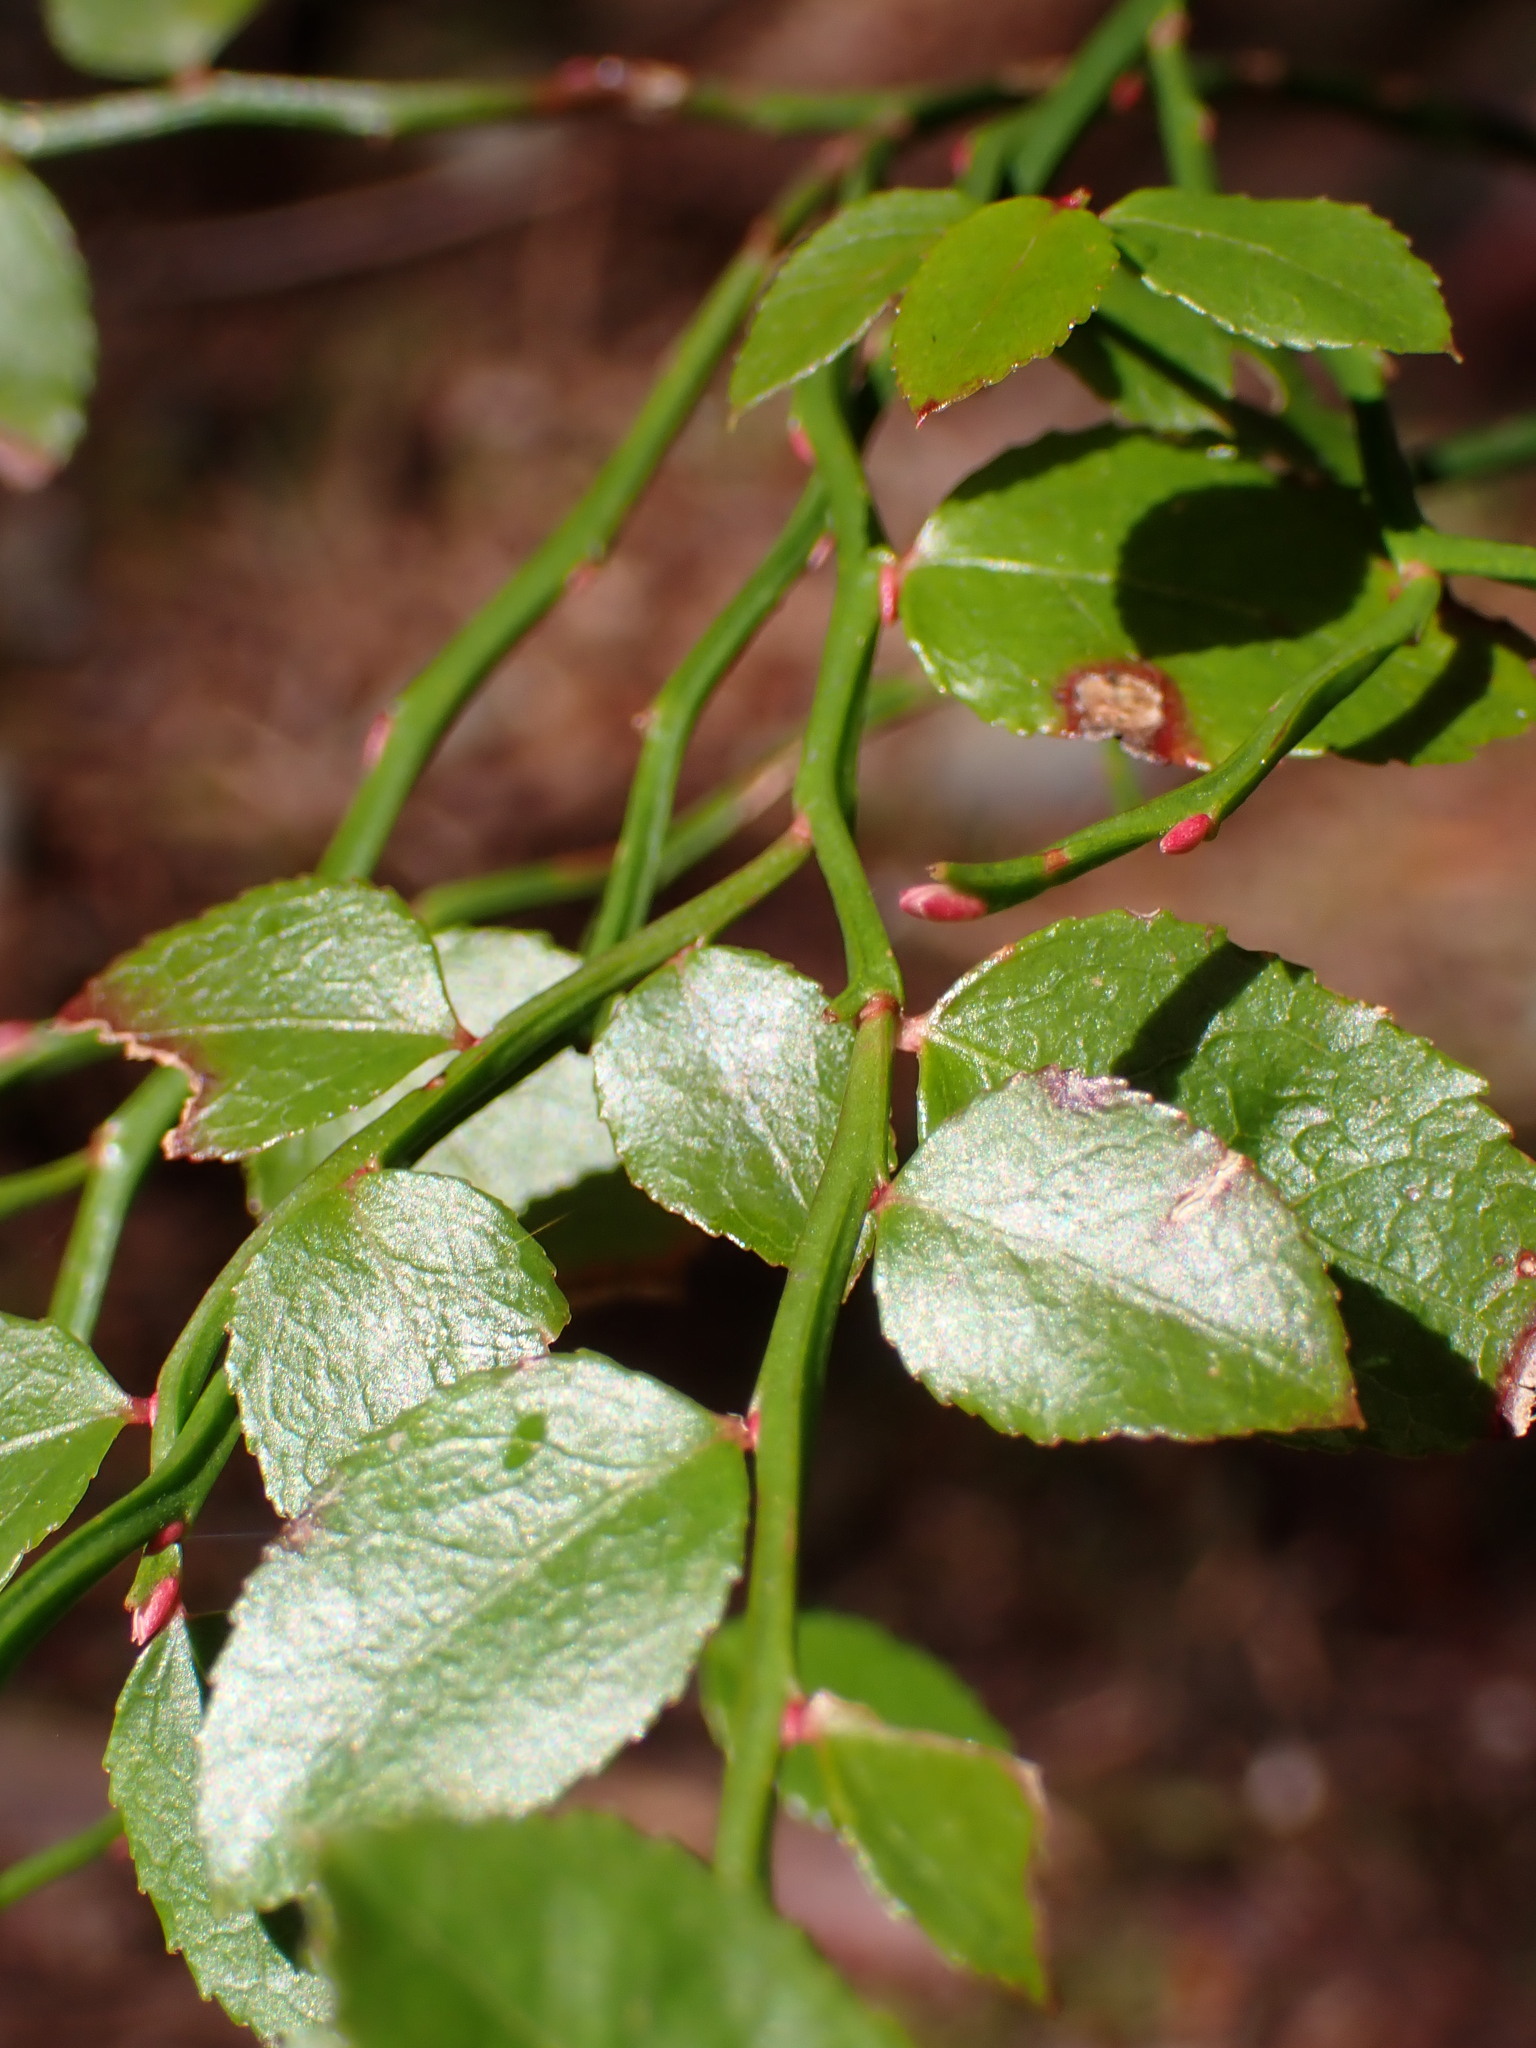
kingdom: Plantae
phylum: Tracheophyta
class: Magnoliopsida
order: Ericales
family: Ericaceae
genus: Vaccinium
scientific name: Vaccinium parvifolium
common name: Red-huckleberry
